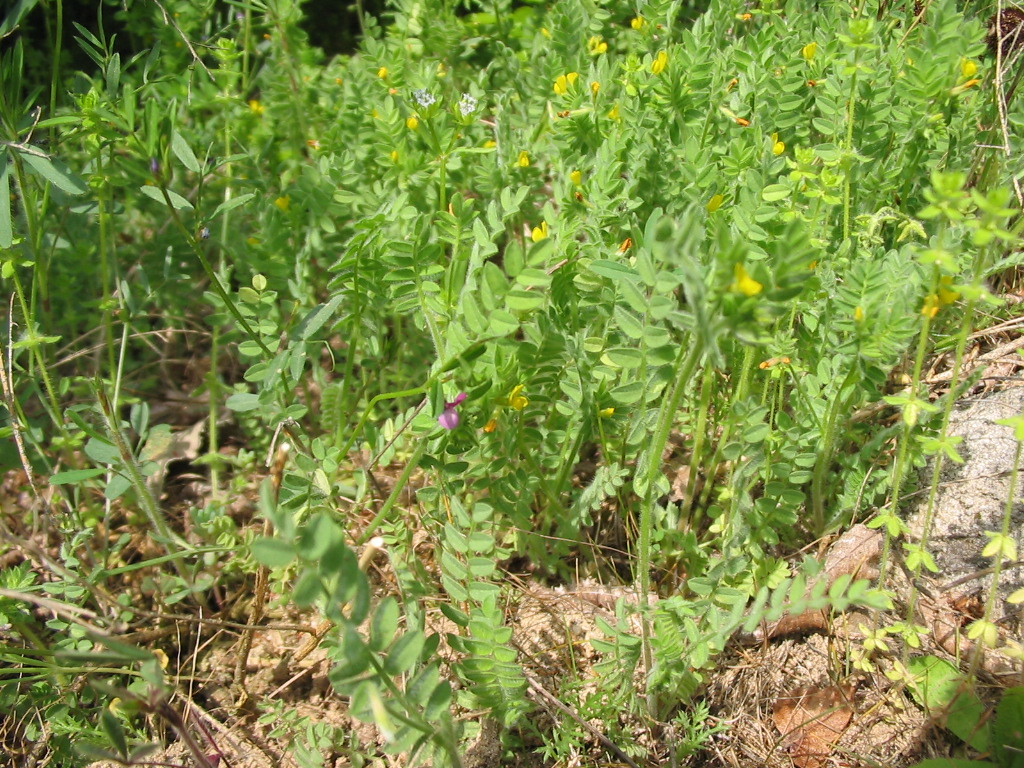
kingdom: Plantae
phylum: Tracheophyta
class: Magnoliopsida
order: Fabales
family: Fabaceae
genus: Ornithopus
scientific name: Ornithopus compressus
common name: Yellow serradella
